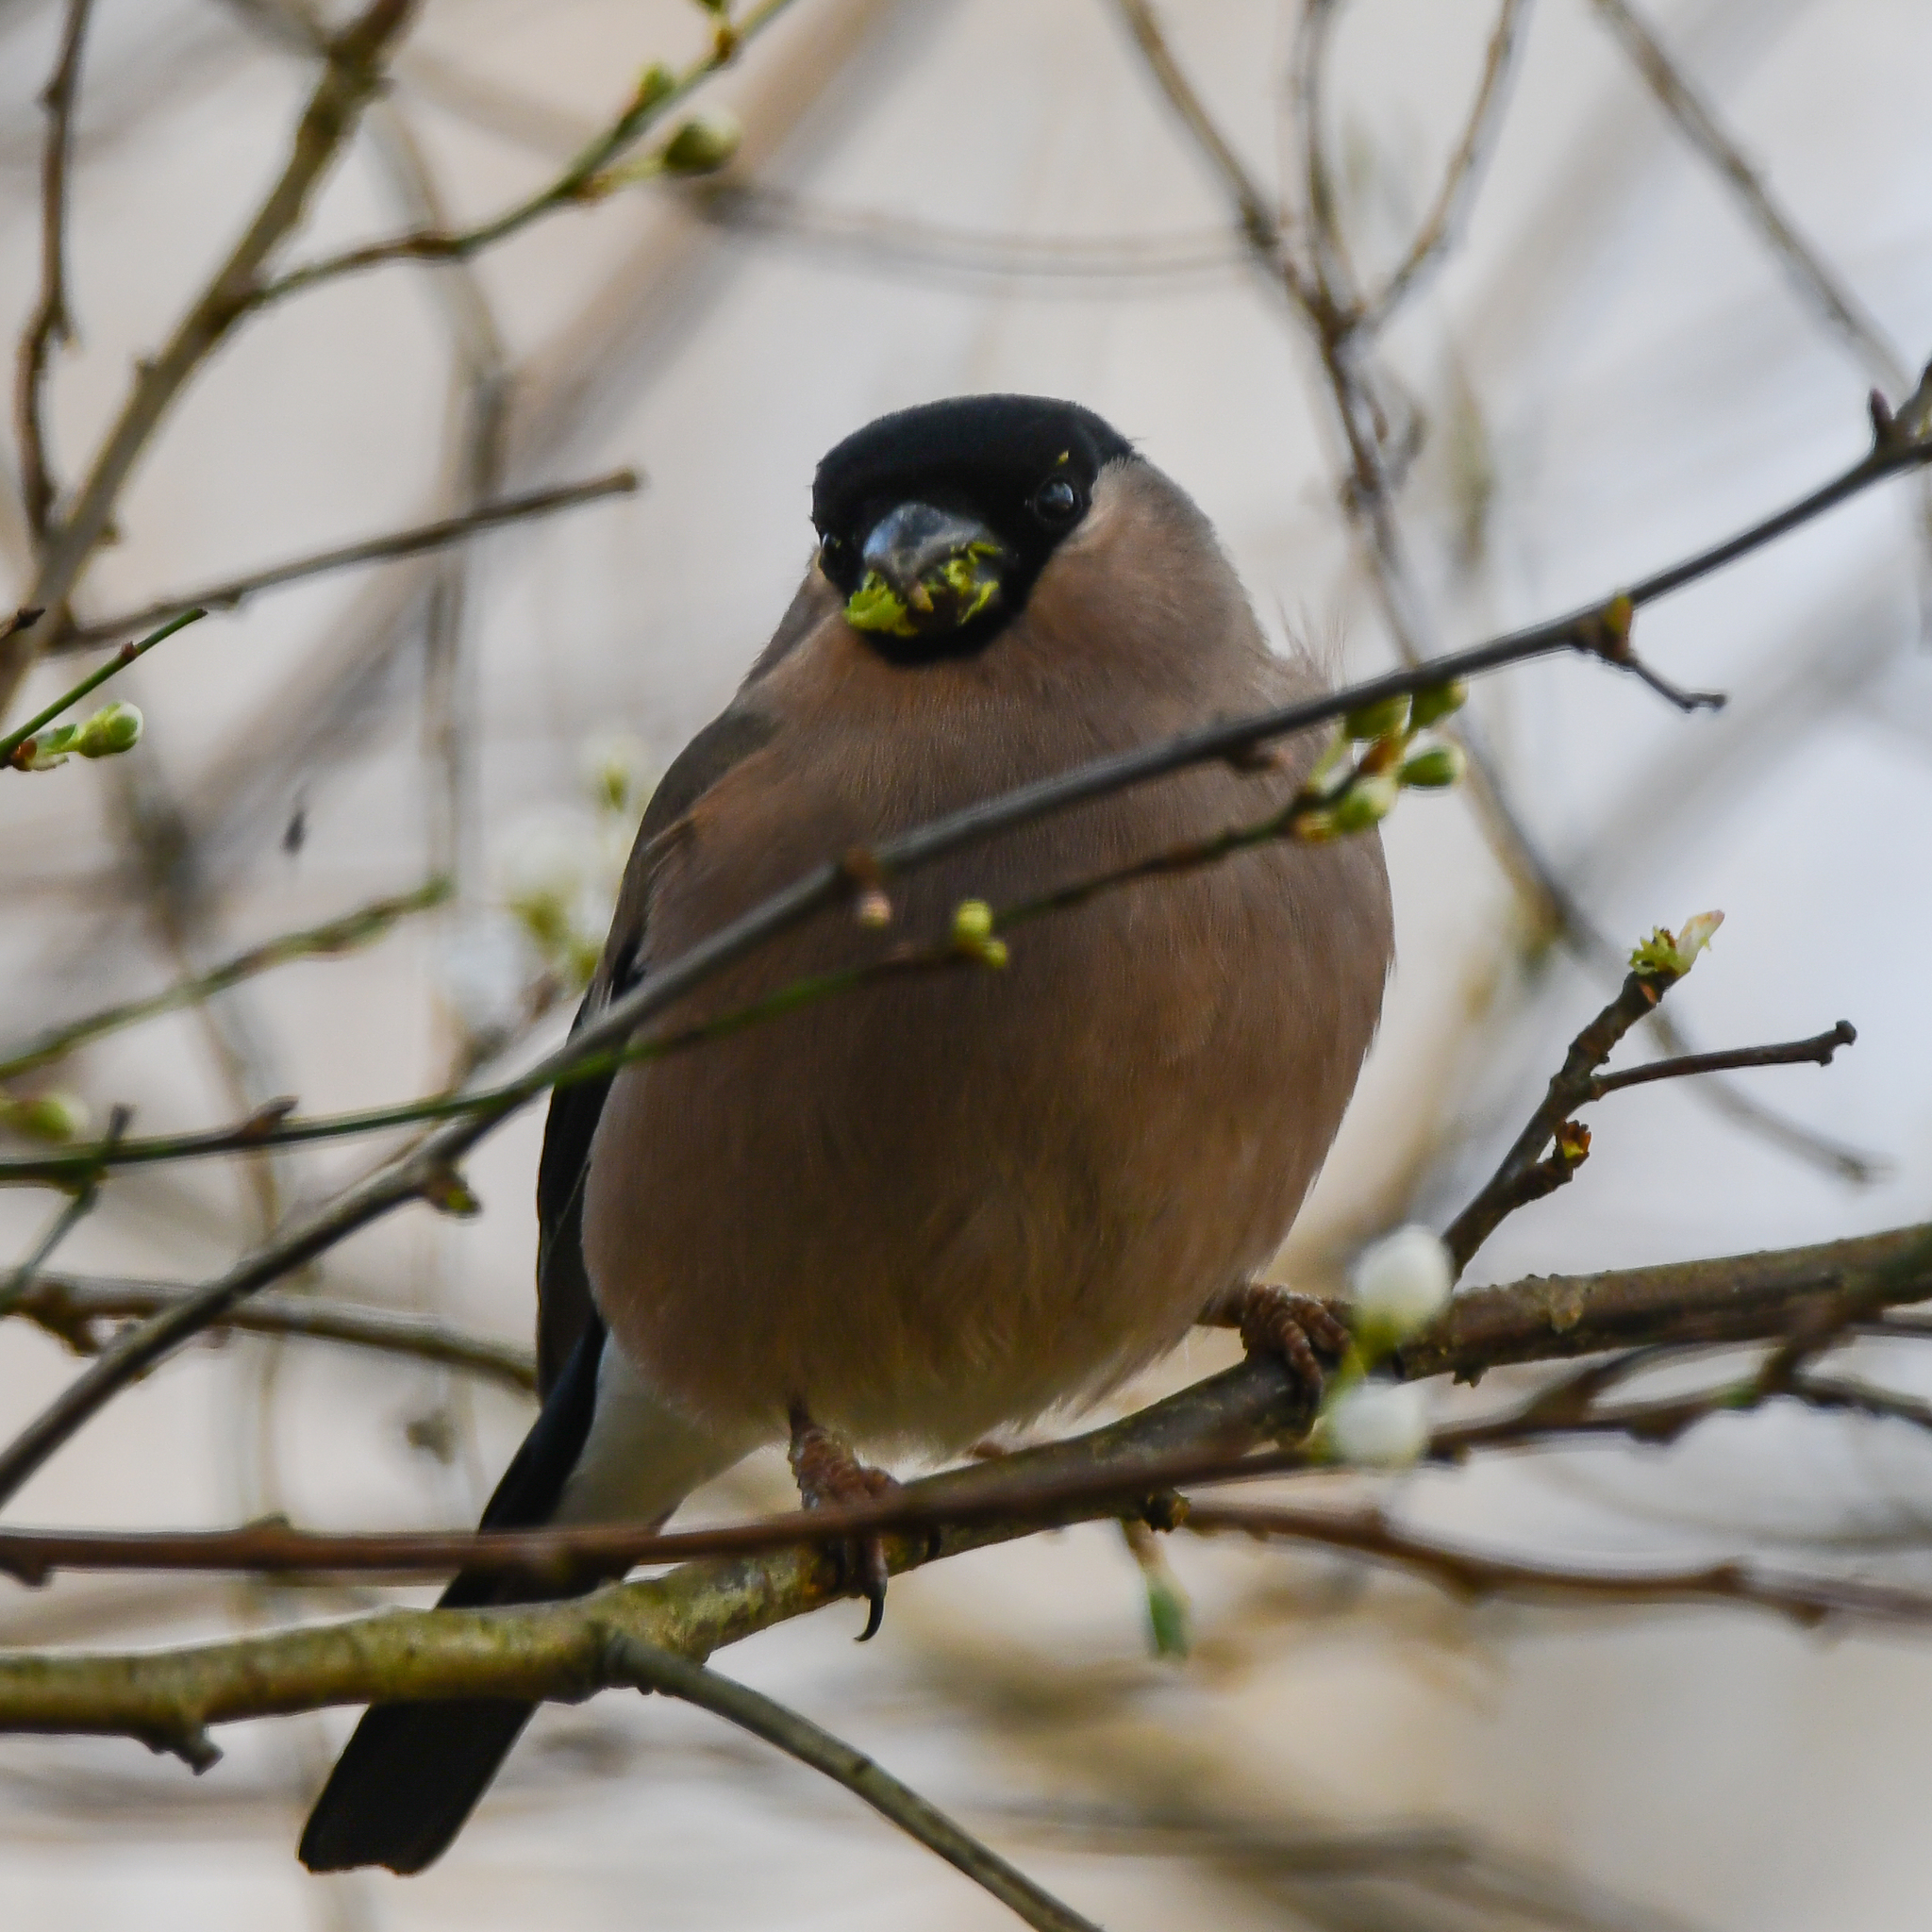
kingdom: Animalia
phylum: Chordata
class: Aves
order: Passeriformes
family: Fringillidae
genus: Pyrrhula
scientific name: Pyrrhula pyrrhula
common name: Eurasian bullfinch
